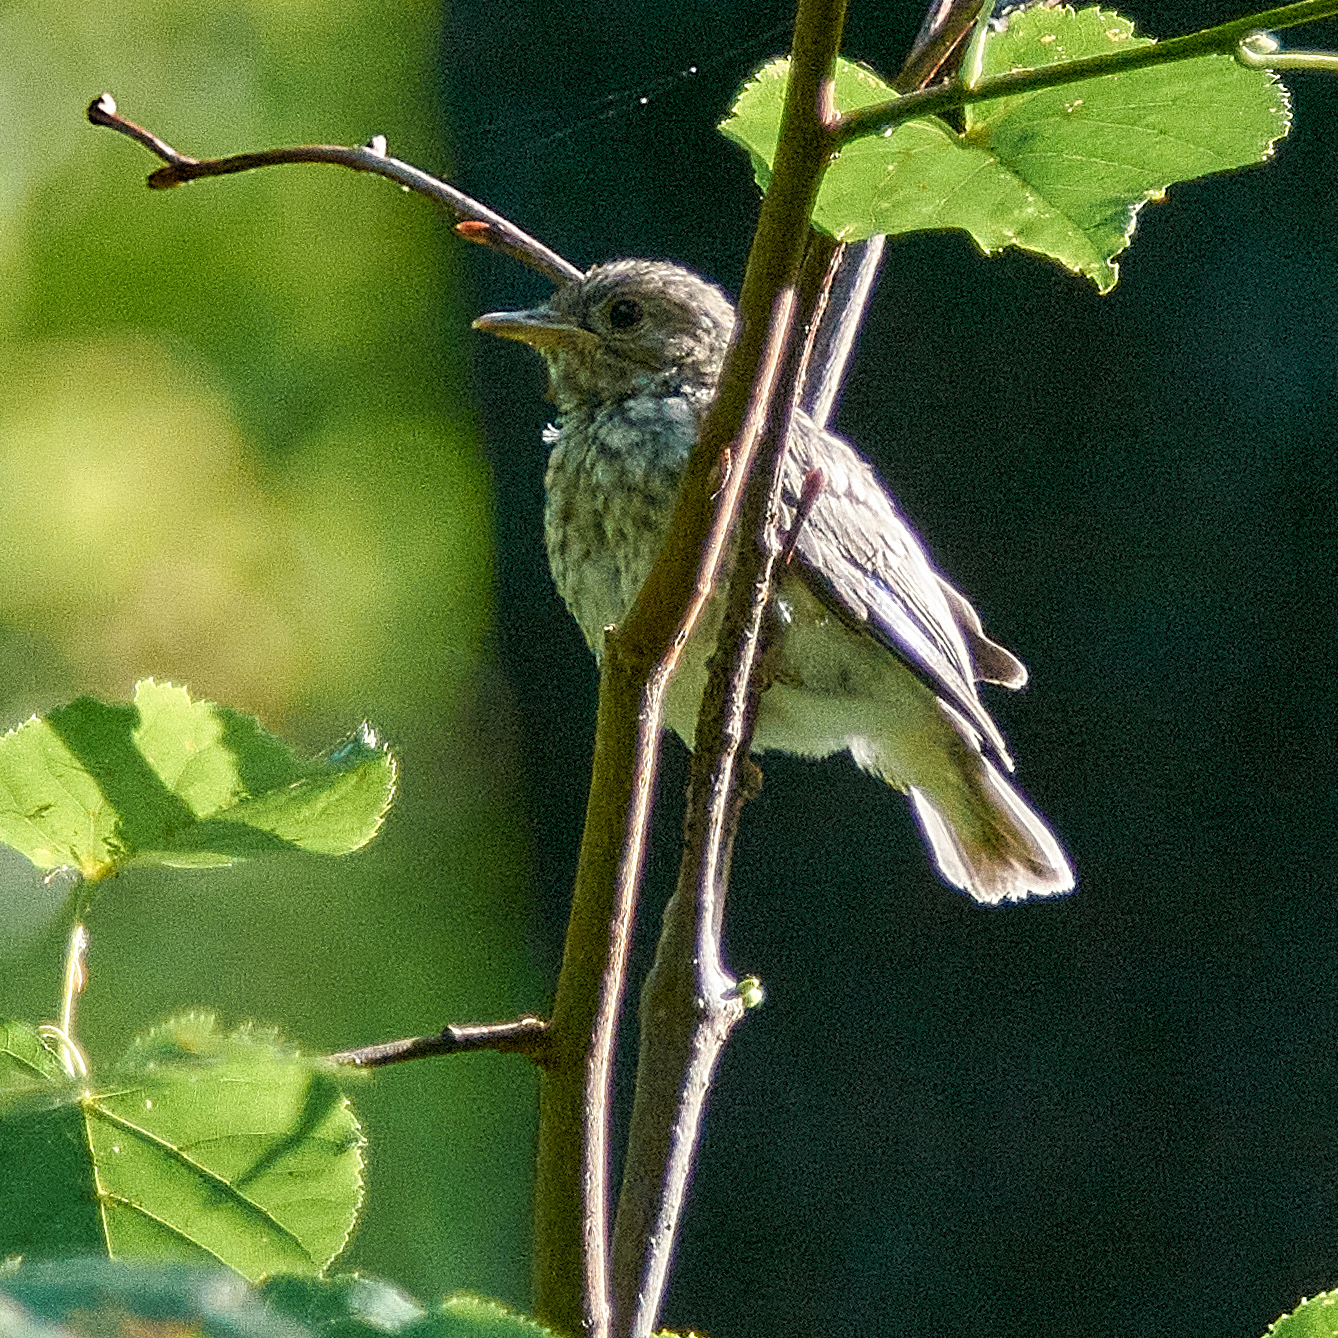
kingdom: Animalia
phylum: Chordata
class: Aves
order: Passeriformes
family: Muscicapidae
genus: Muscicapa
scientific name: Muscicapa striata
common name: Spotted flycatcher
